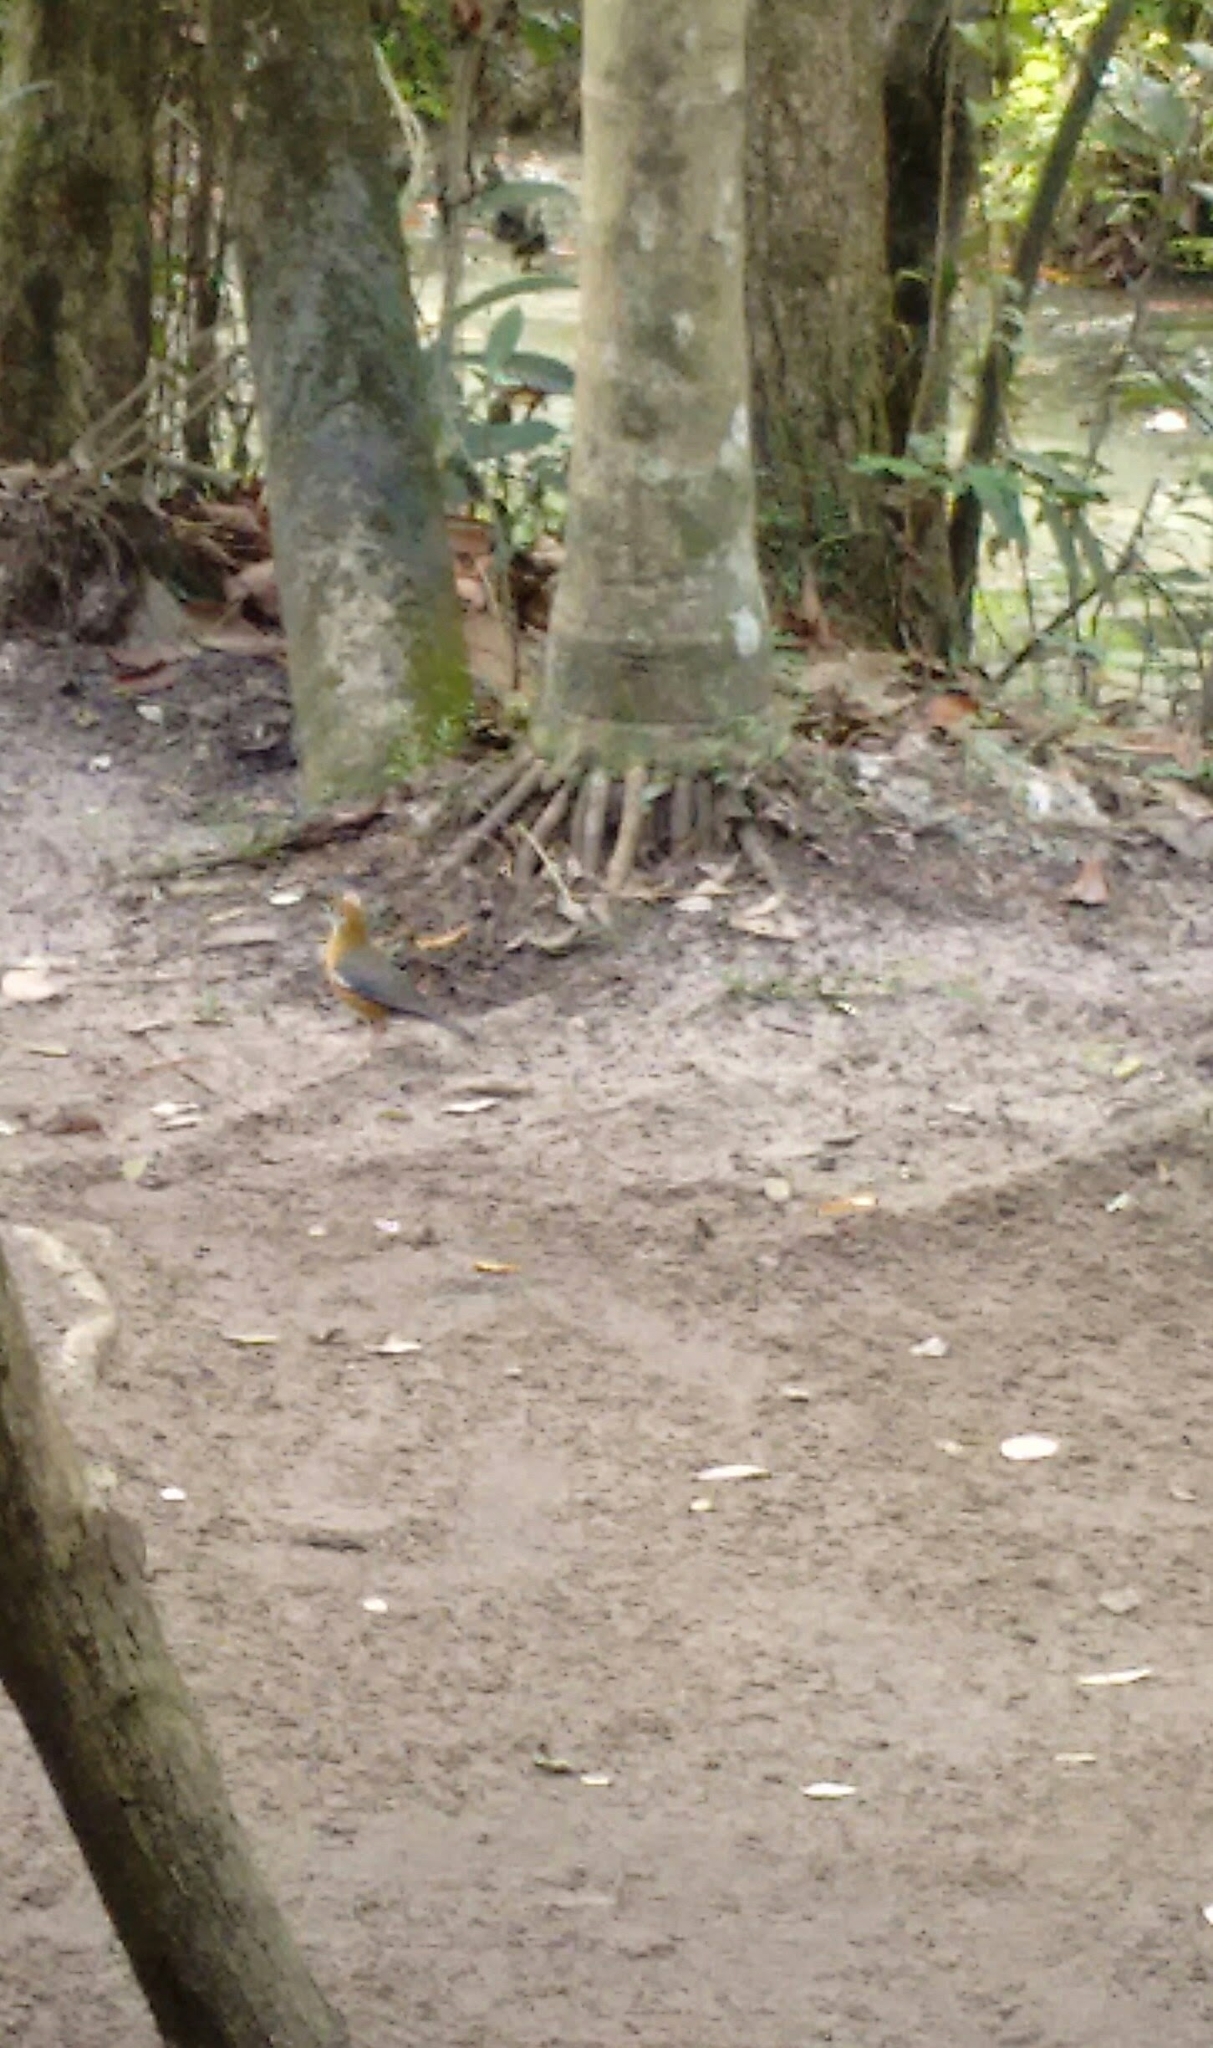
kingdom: Animalia
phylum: Chordata
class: Aves
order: Passeriformes
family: Turdidae
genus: Geokichla
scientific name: Geokichla citrina
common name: Orange-headed thrush
